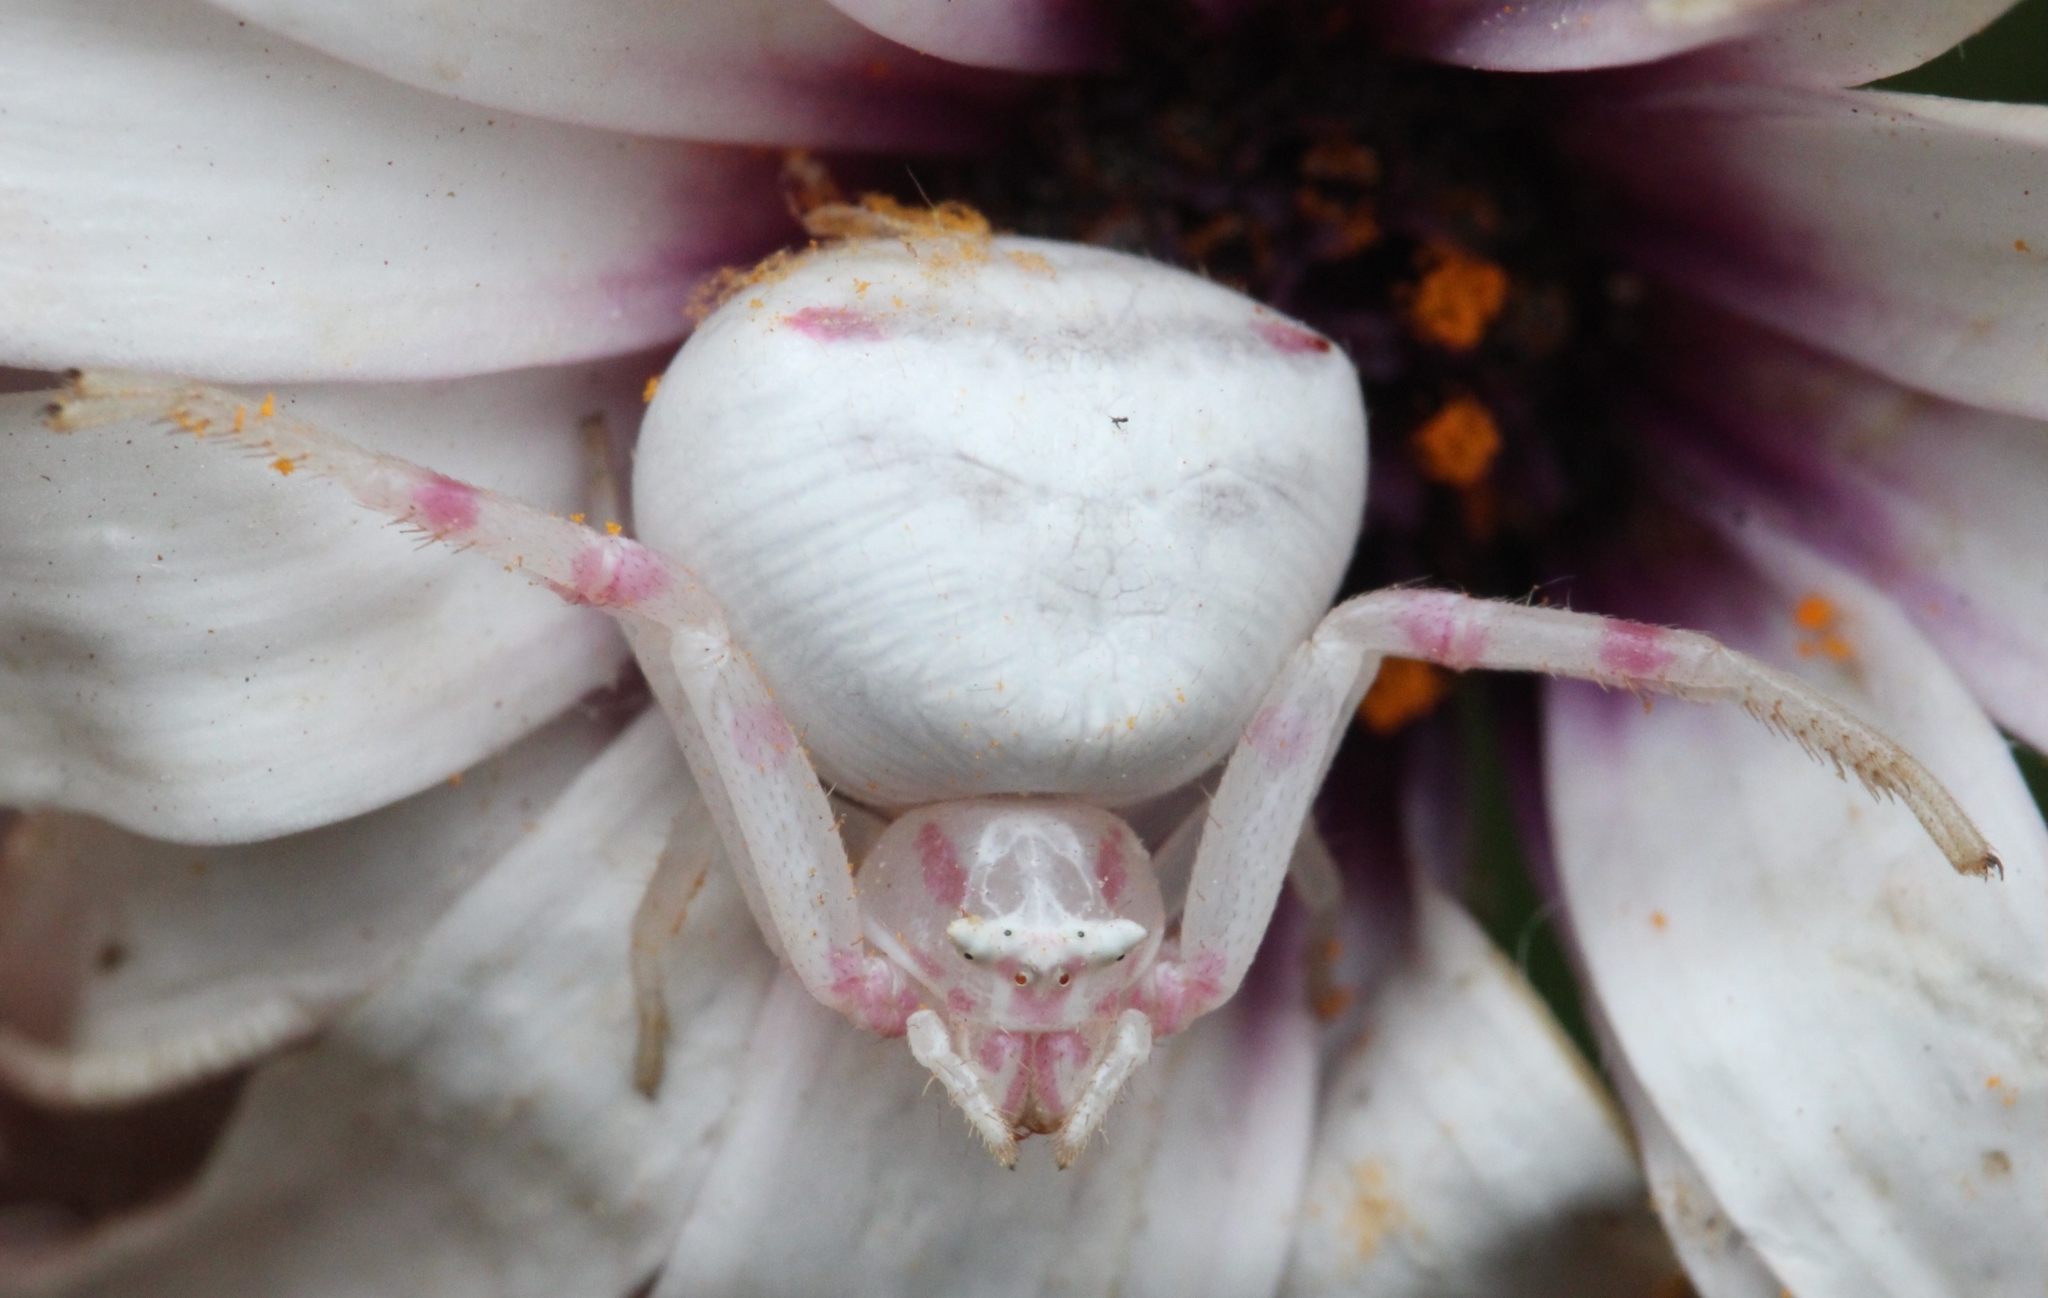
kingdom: Animalia
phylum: Arthropoda
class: Arachnida
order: Araneae
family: Thomisidae
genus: Thomisus
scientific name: Thomisus citrinellus
